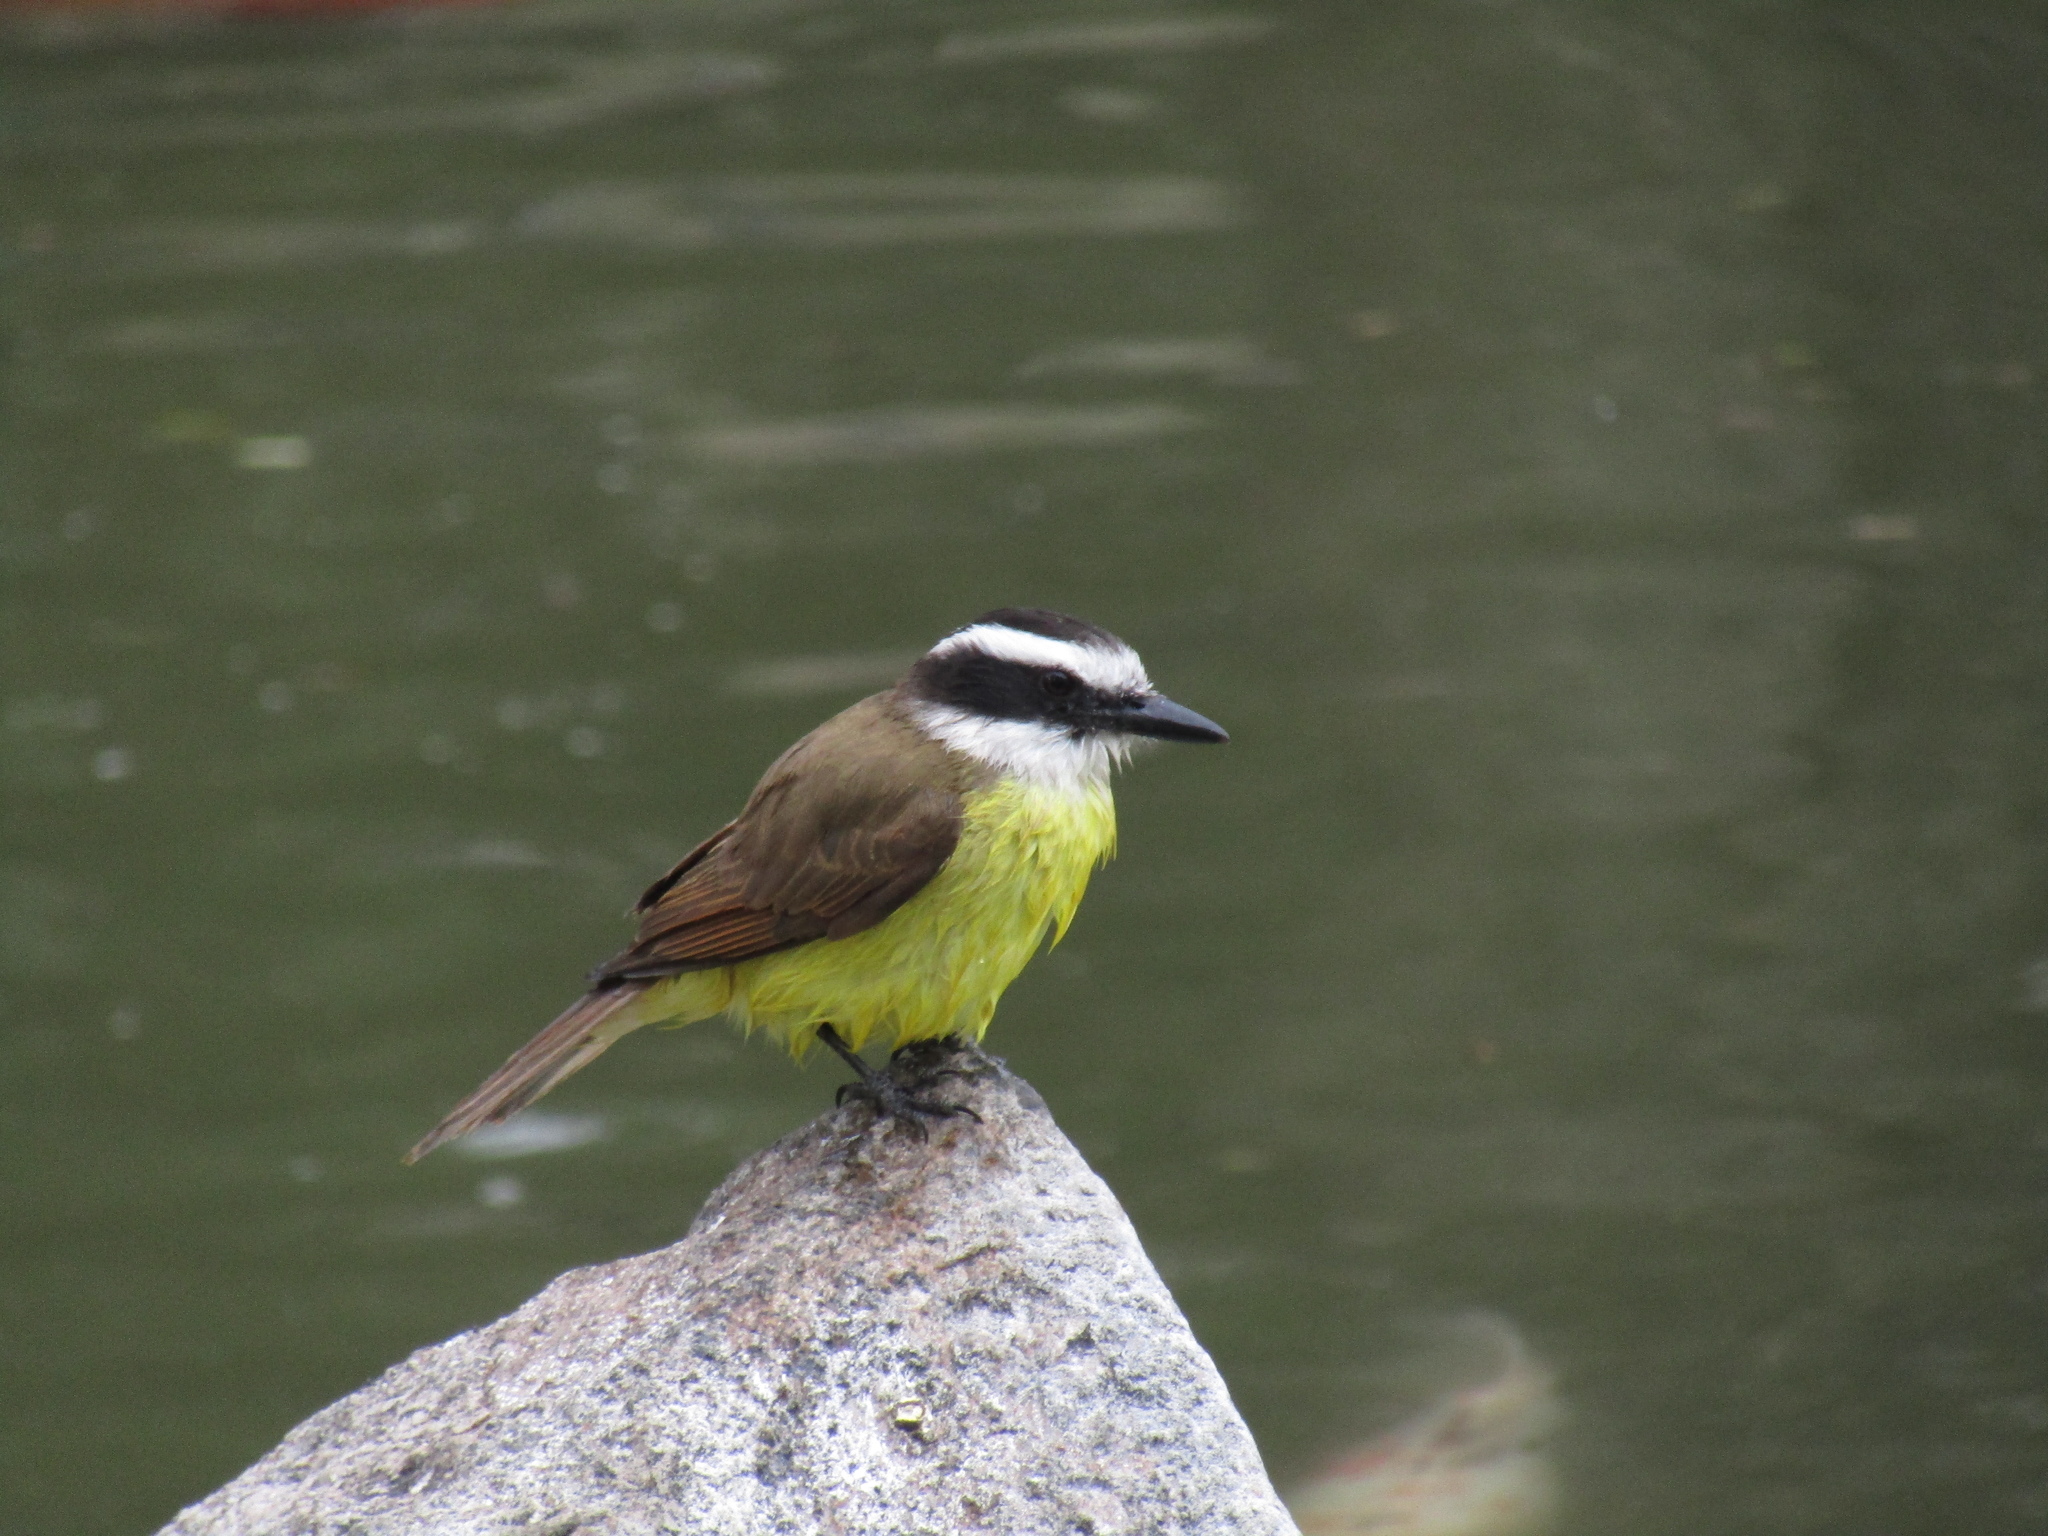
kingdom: Animalia
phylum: Chordata
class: Aves
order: Passeriformes
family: Tyrannidae
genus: Pitangus
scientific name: Pitangus sulphuratus
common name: Great kiskadee
